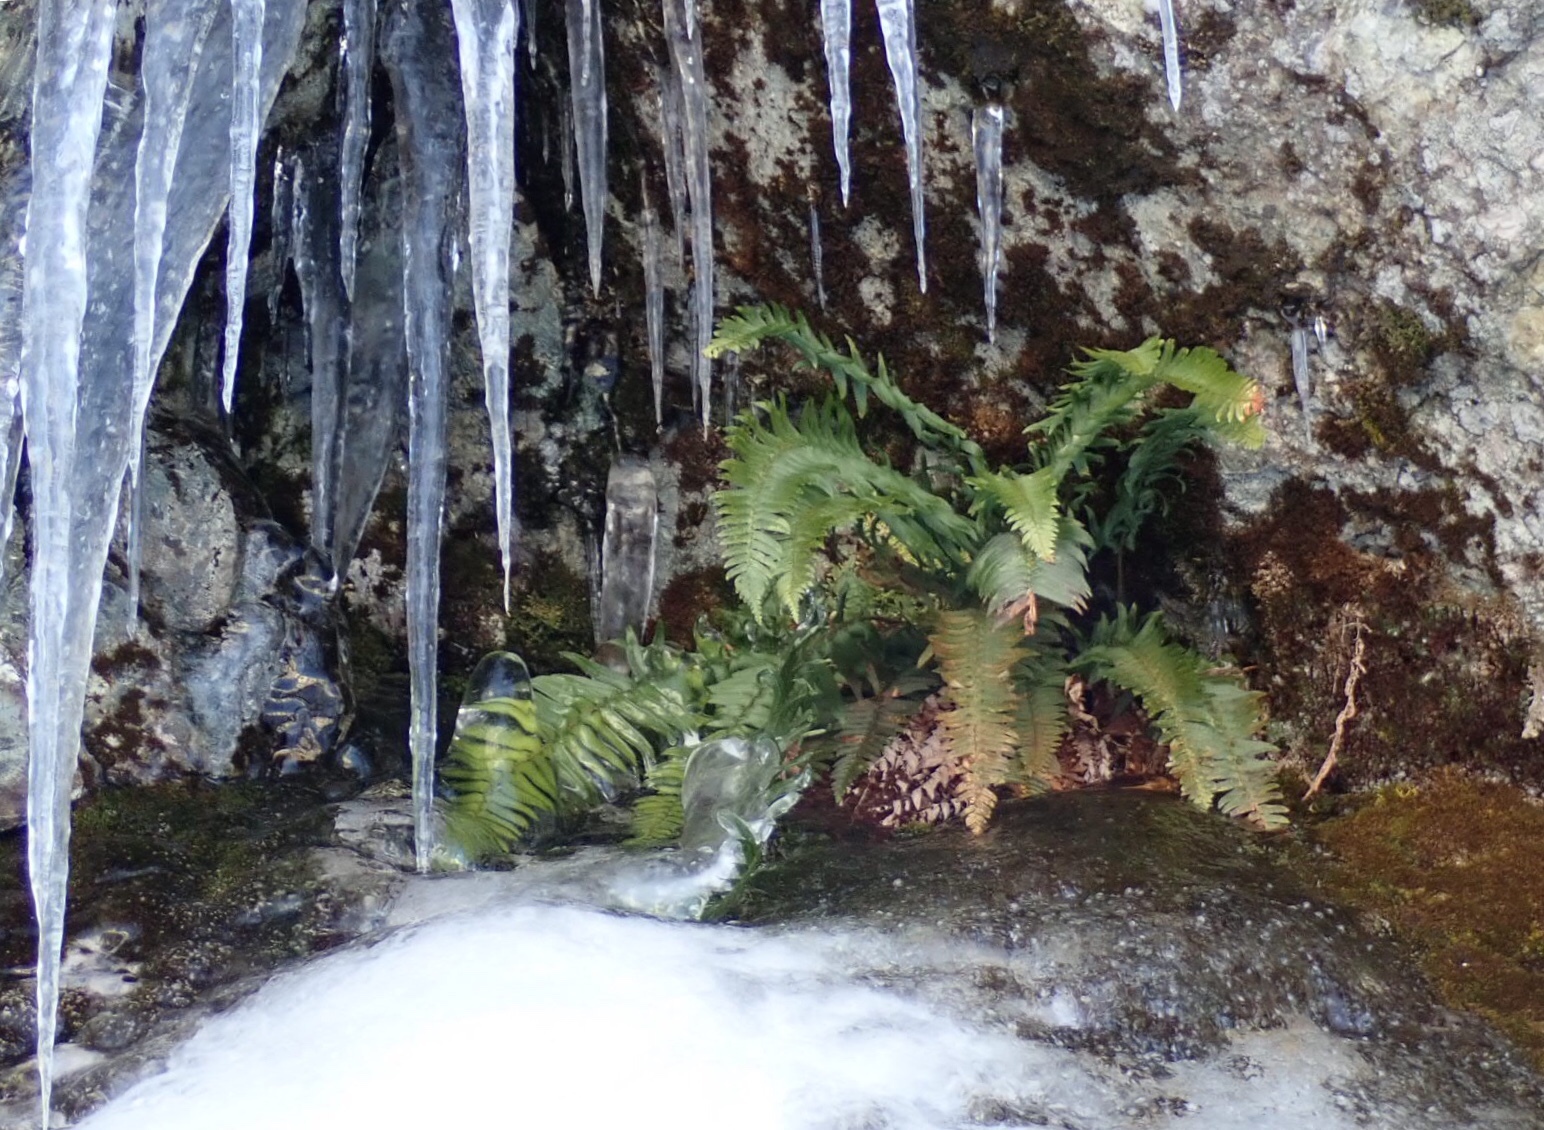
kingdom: Plantae
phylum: Tracheophyta
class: Polypodiopsida
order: Polypodiales
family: Dryopteridaceae
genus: Polystichum
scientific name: Polystichum munitum
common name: Western sword-fern
